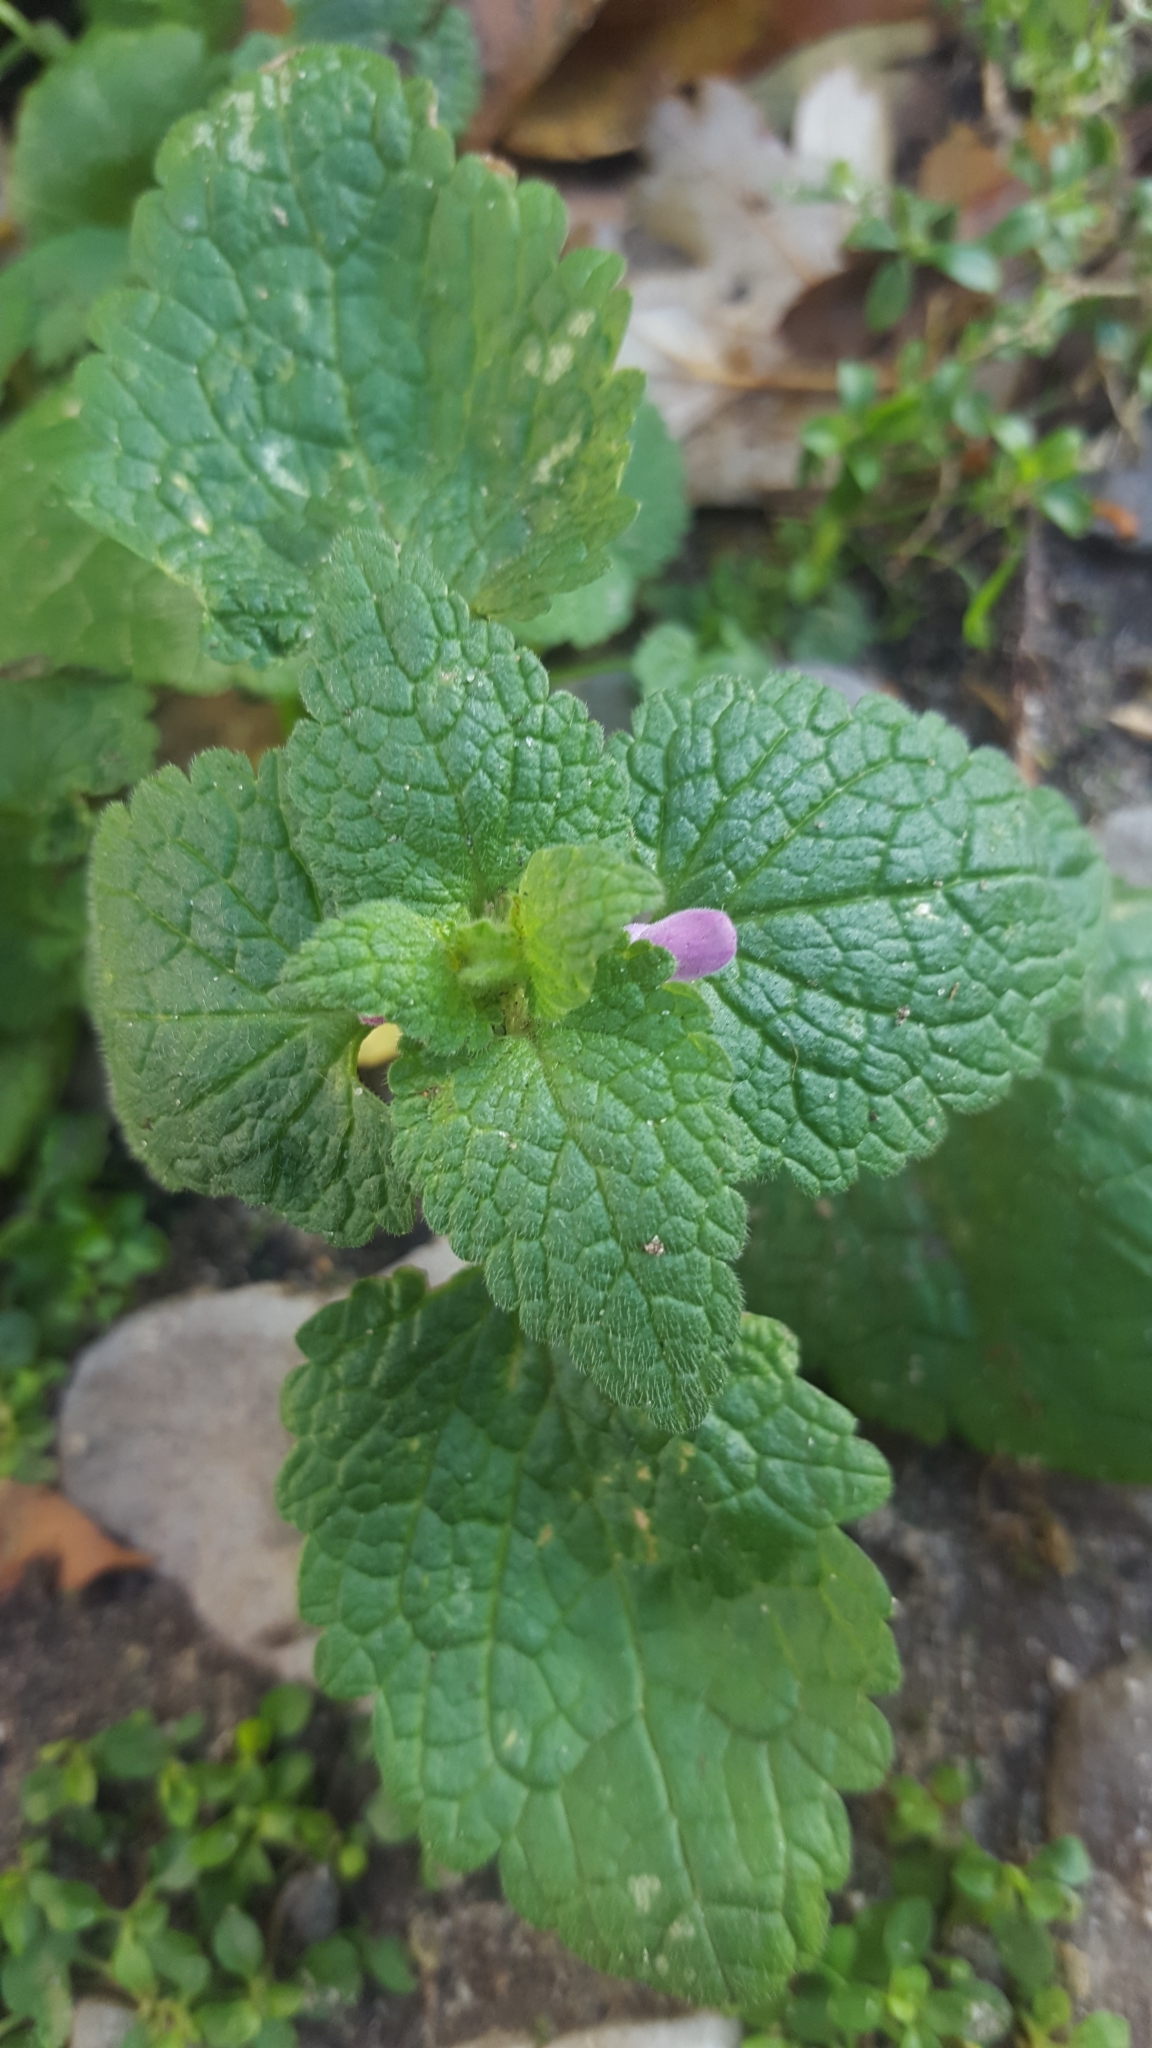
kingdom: Plantae
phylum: Tracheophyta
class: Magnoliopsida
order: Lamiales
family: Lamiaceae
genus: Lamium
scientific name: Lamium purpureum
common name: Red dead-nettle
